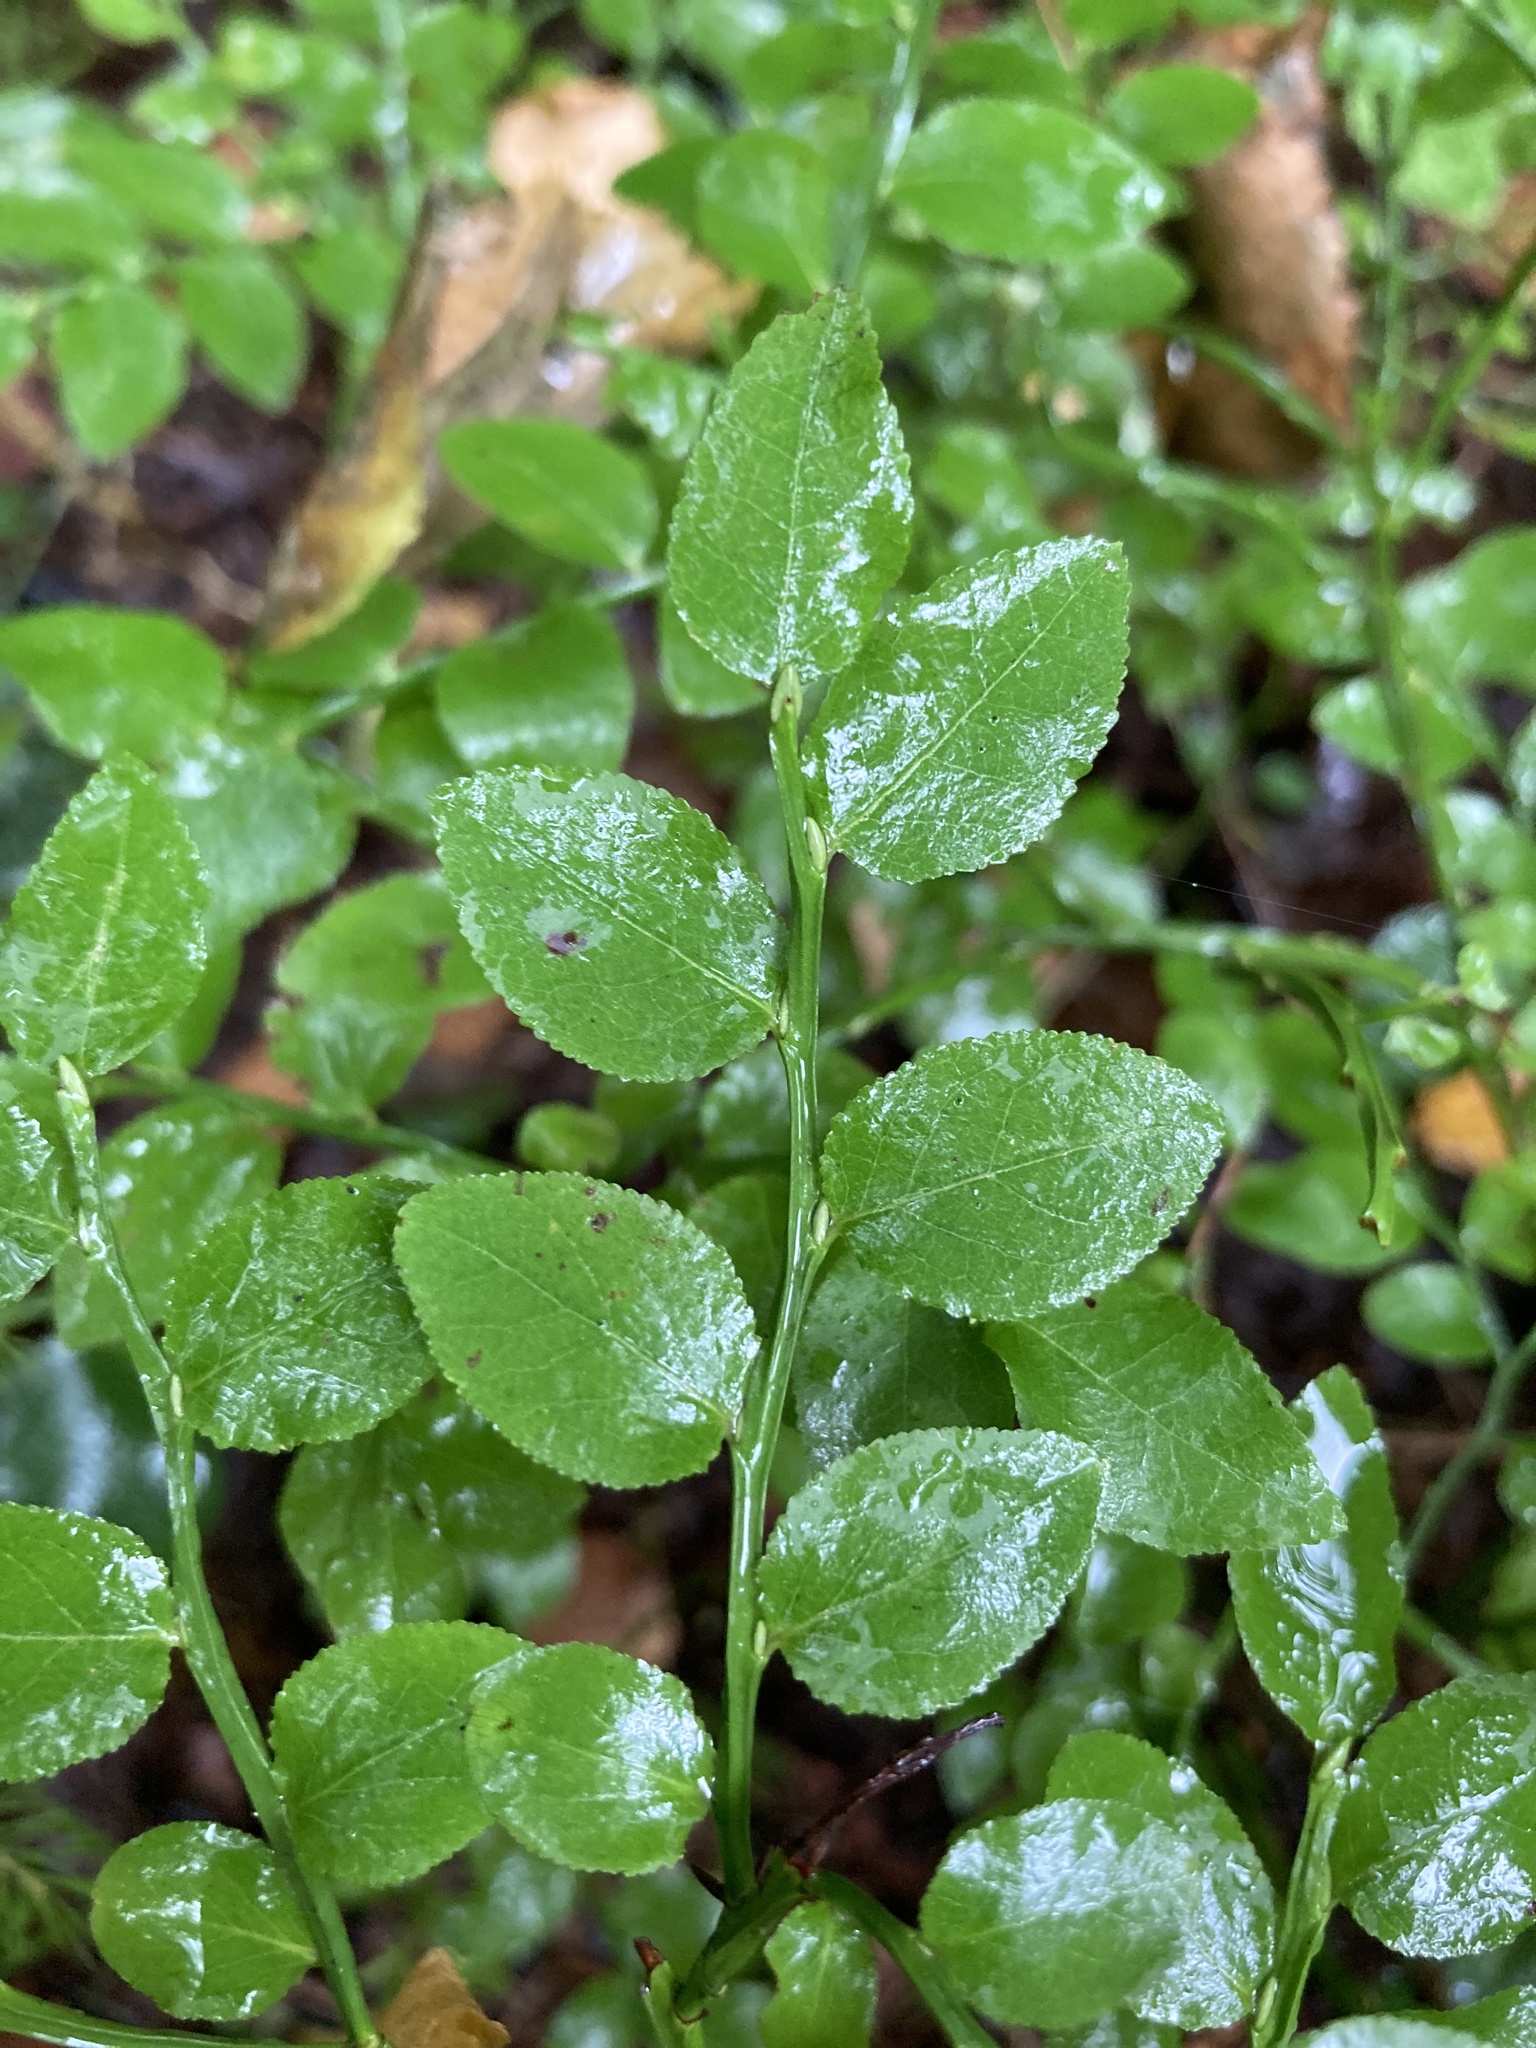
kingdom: Plantae
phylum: Tracheophyta
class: Magnoliopsida
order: Ericales
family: Ericaceae
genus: Vaccinium
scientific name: Vaccinium myrtillus
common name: Bilberry
